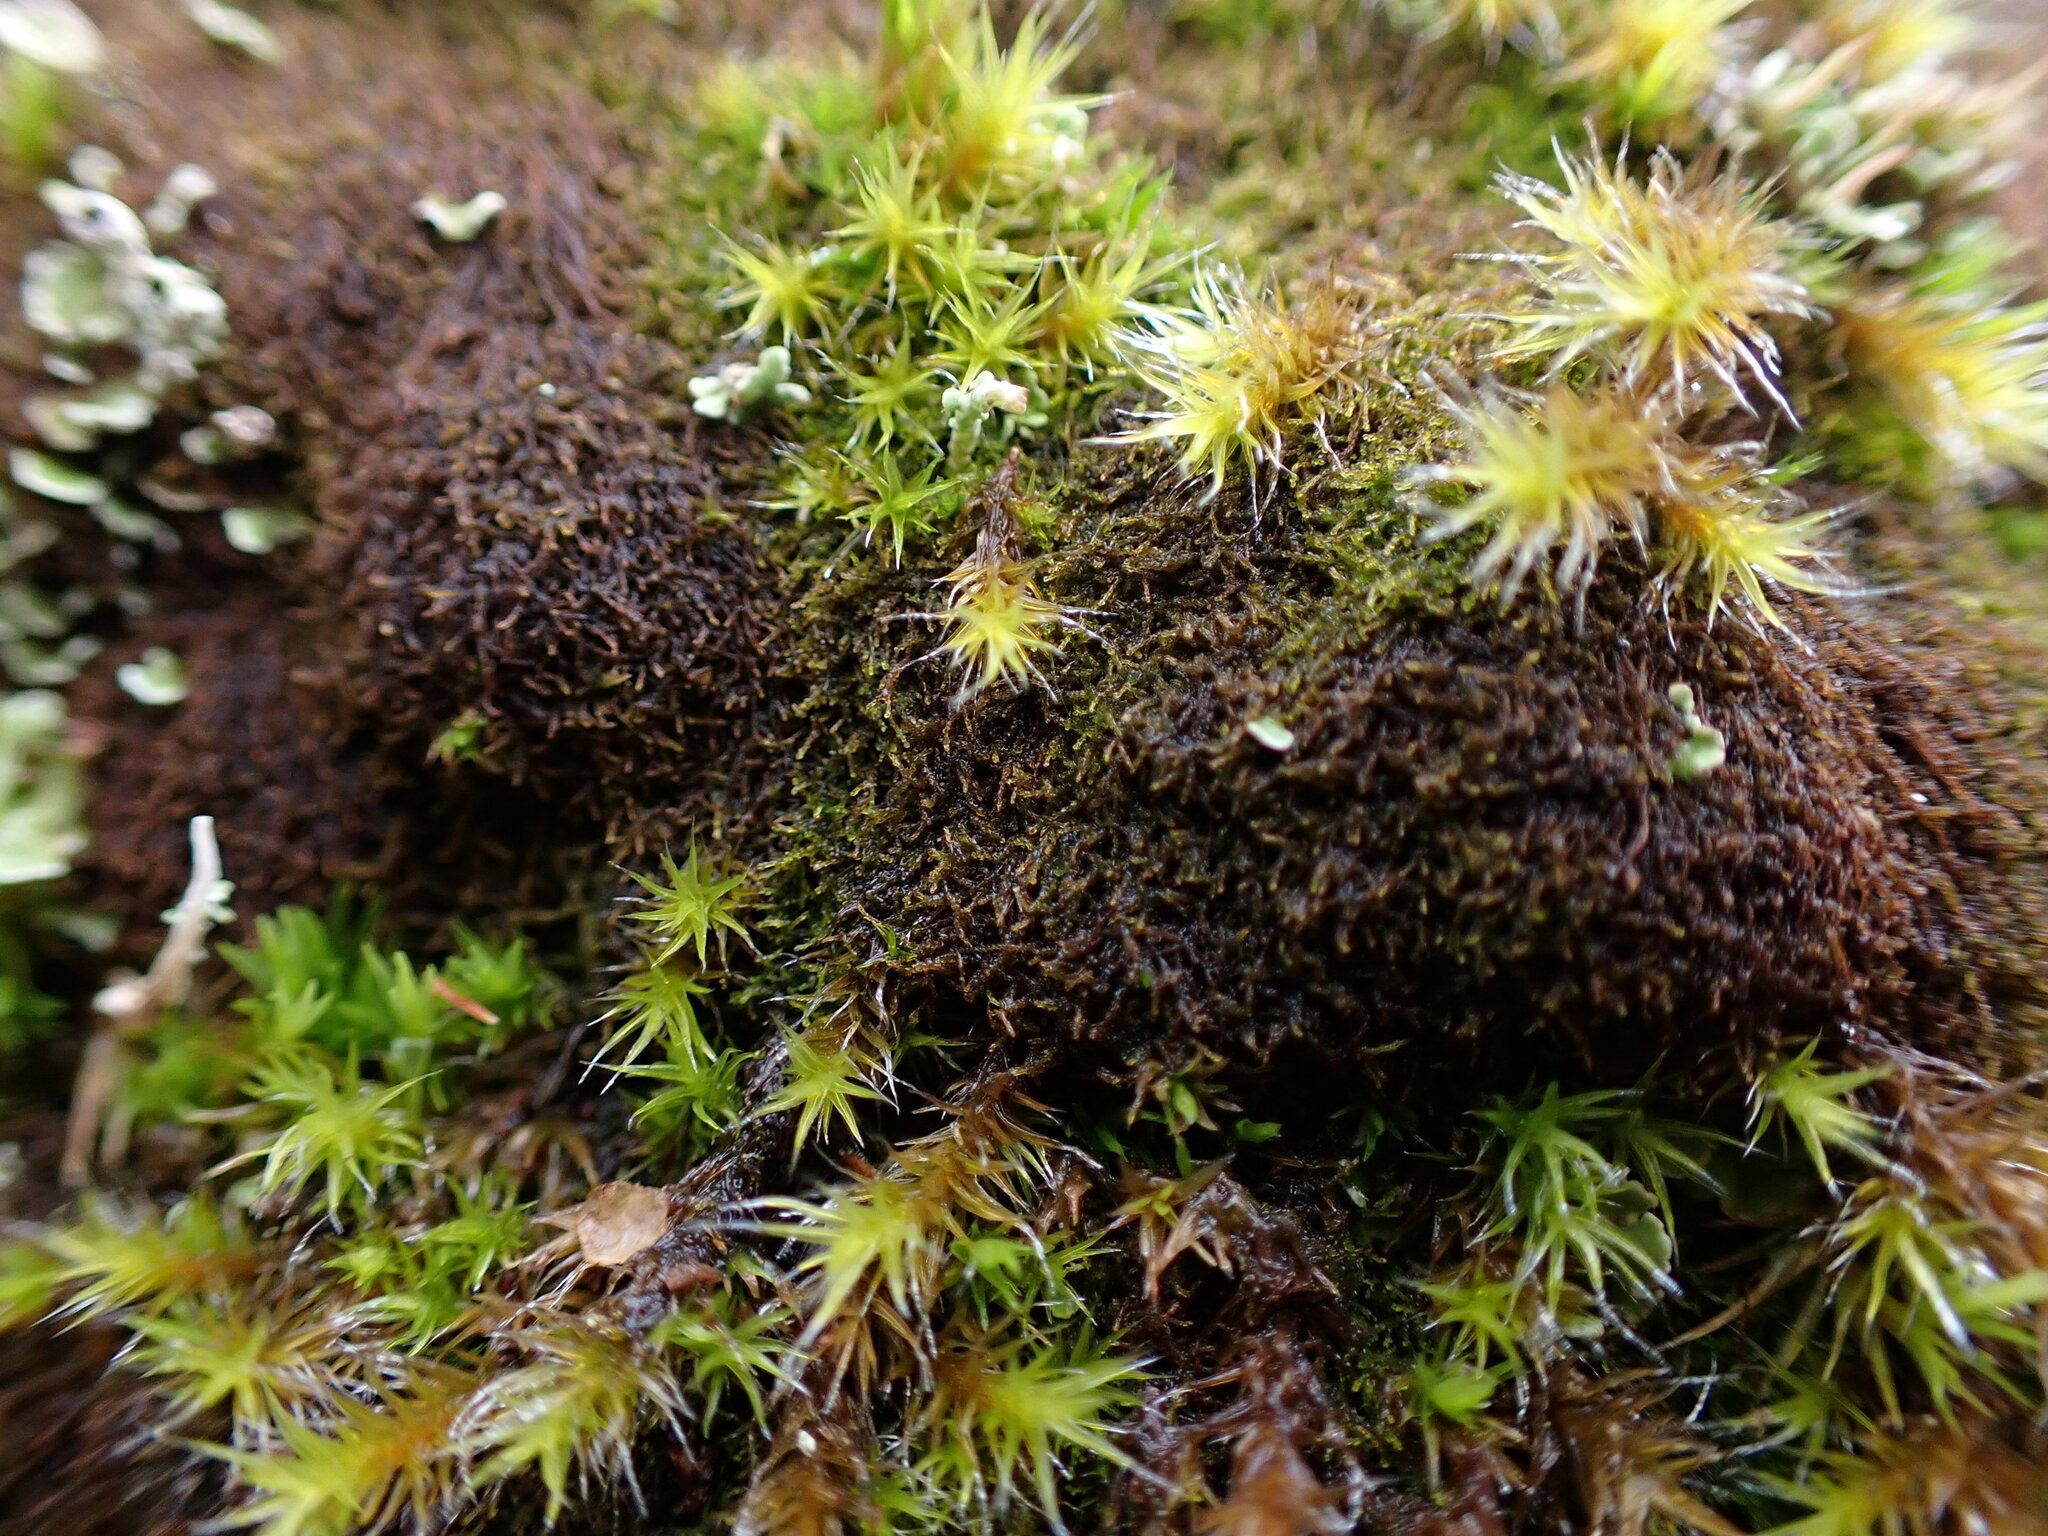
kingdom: Plantae
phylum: Marchantiophyta
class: Jungermanniopsida
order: Jungermanniales
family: Cephaloziellaceae
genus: Cephaloziella
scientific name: Cephaloziella divaricata
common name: Spreading threadwort
